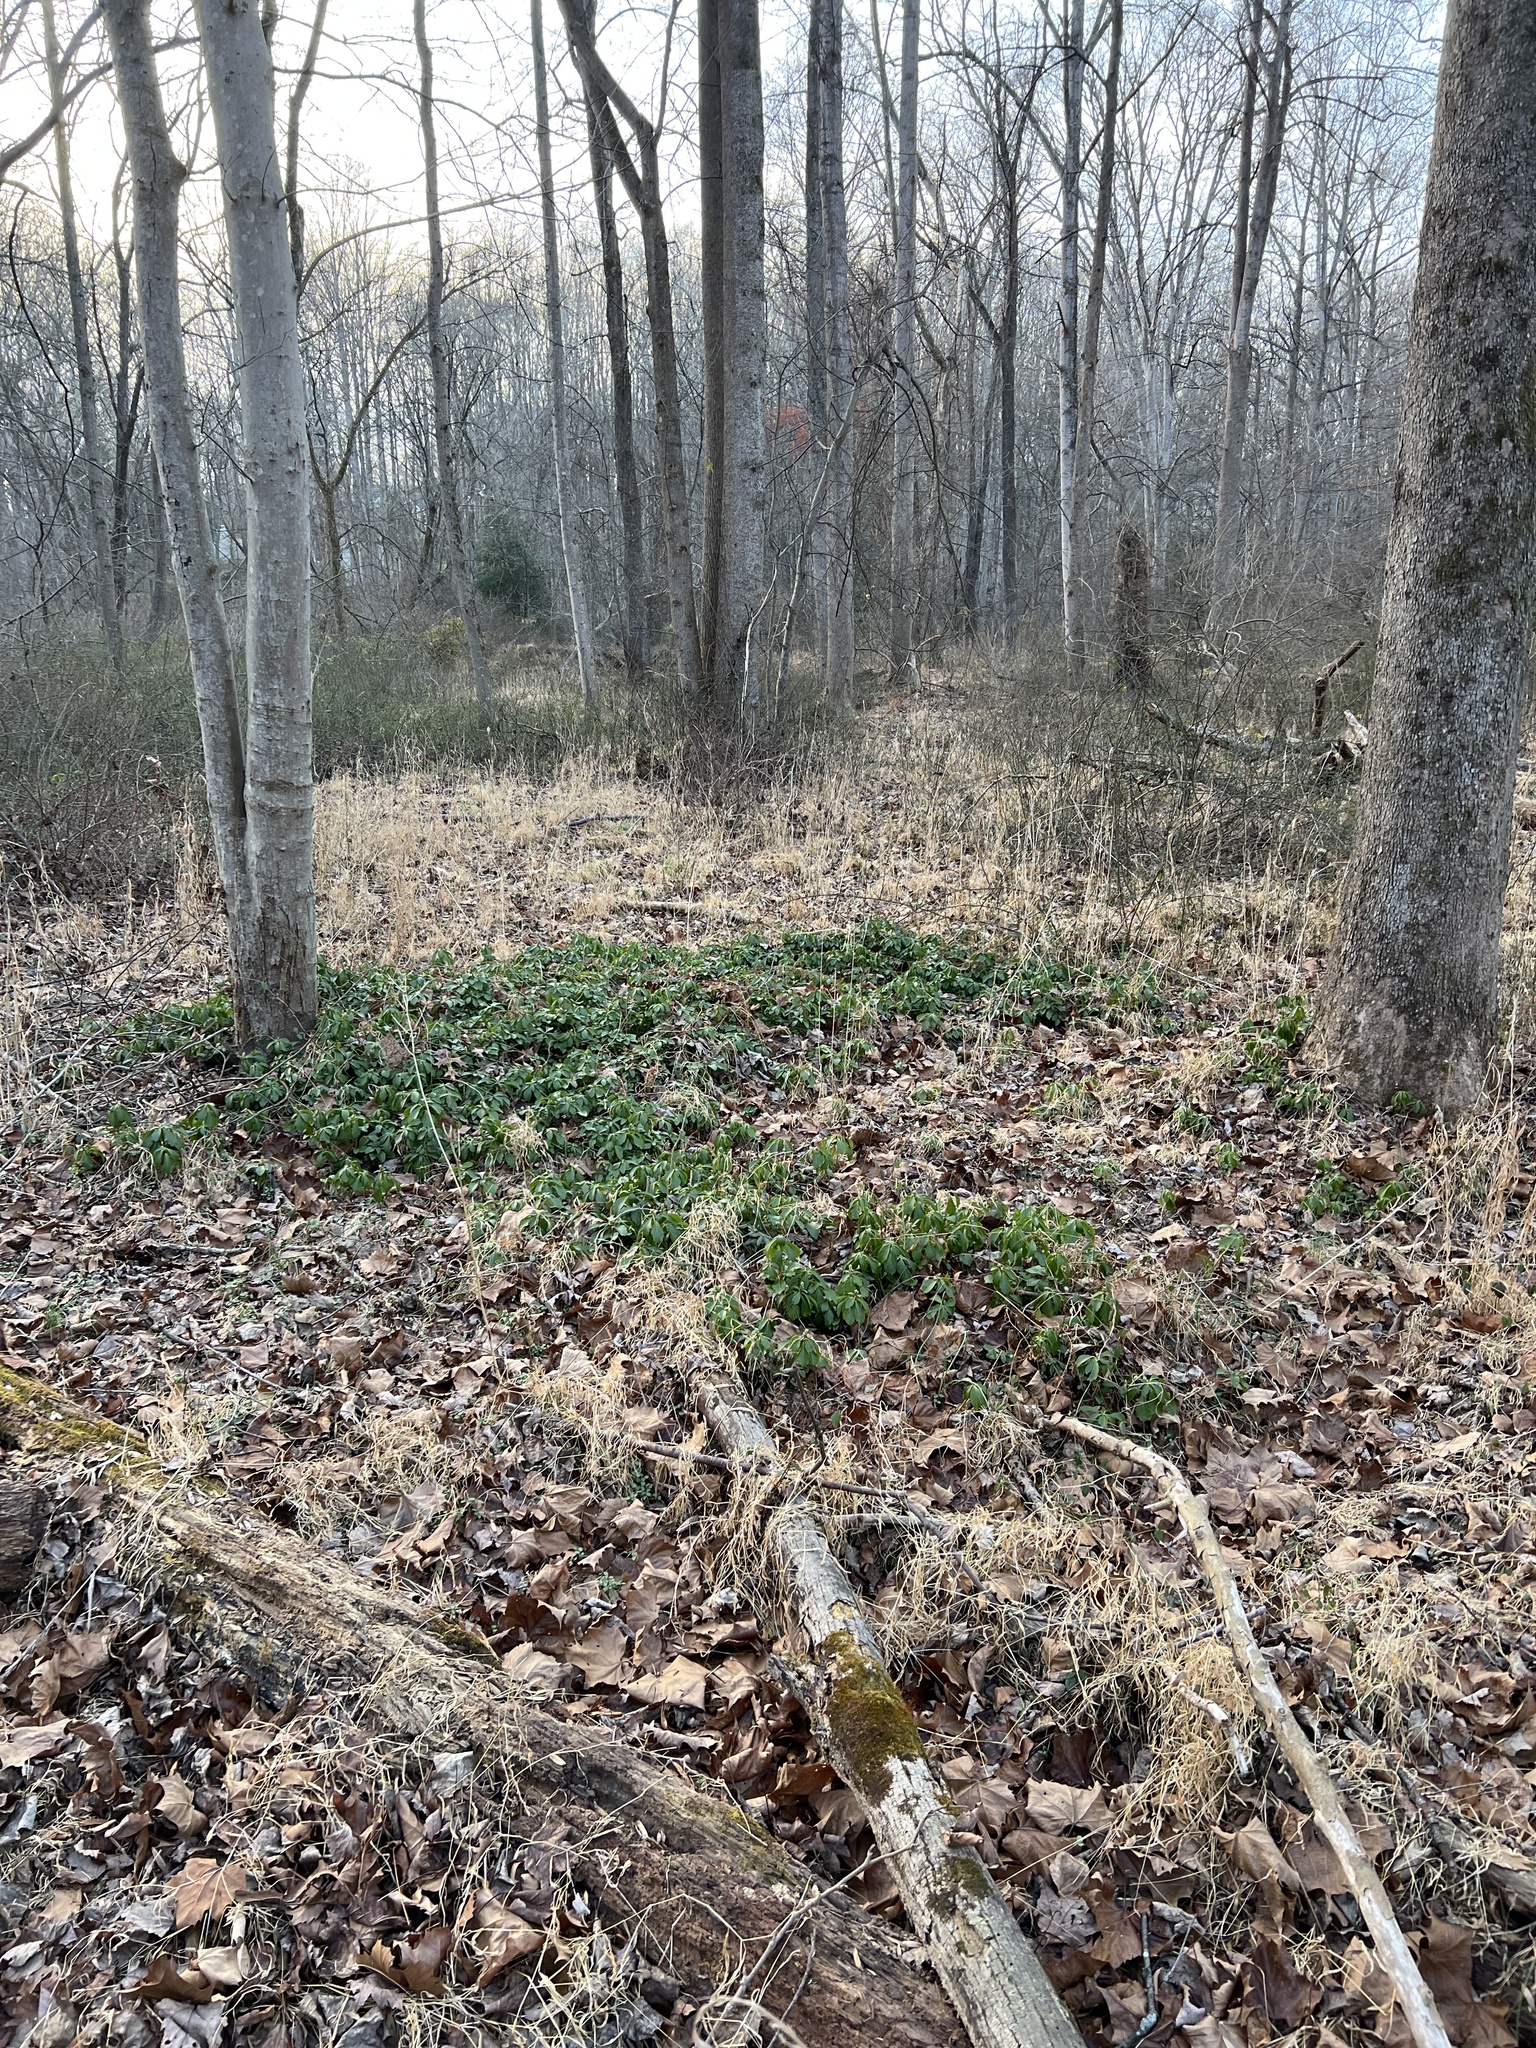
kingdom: Plantae
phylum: Tracheophyta
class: Magnoliopsida
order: Buxales
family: Buxaceae
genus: Pachysandra
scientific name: Pachysandra terminalis
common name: Japanese pachysandra
